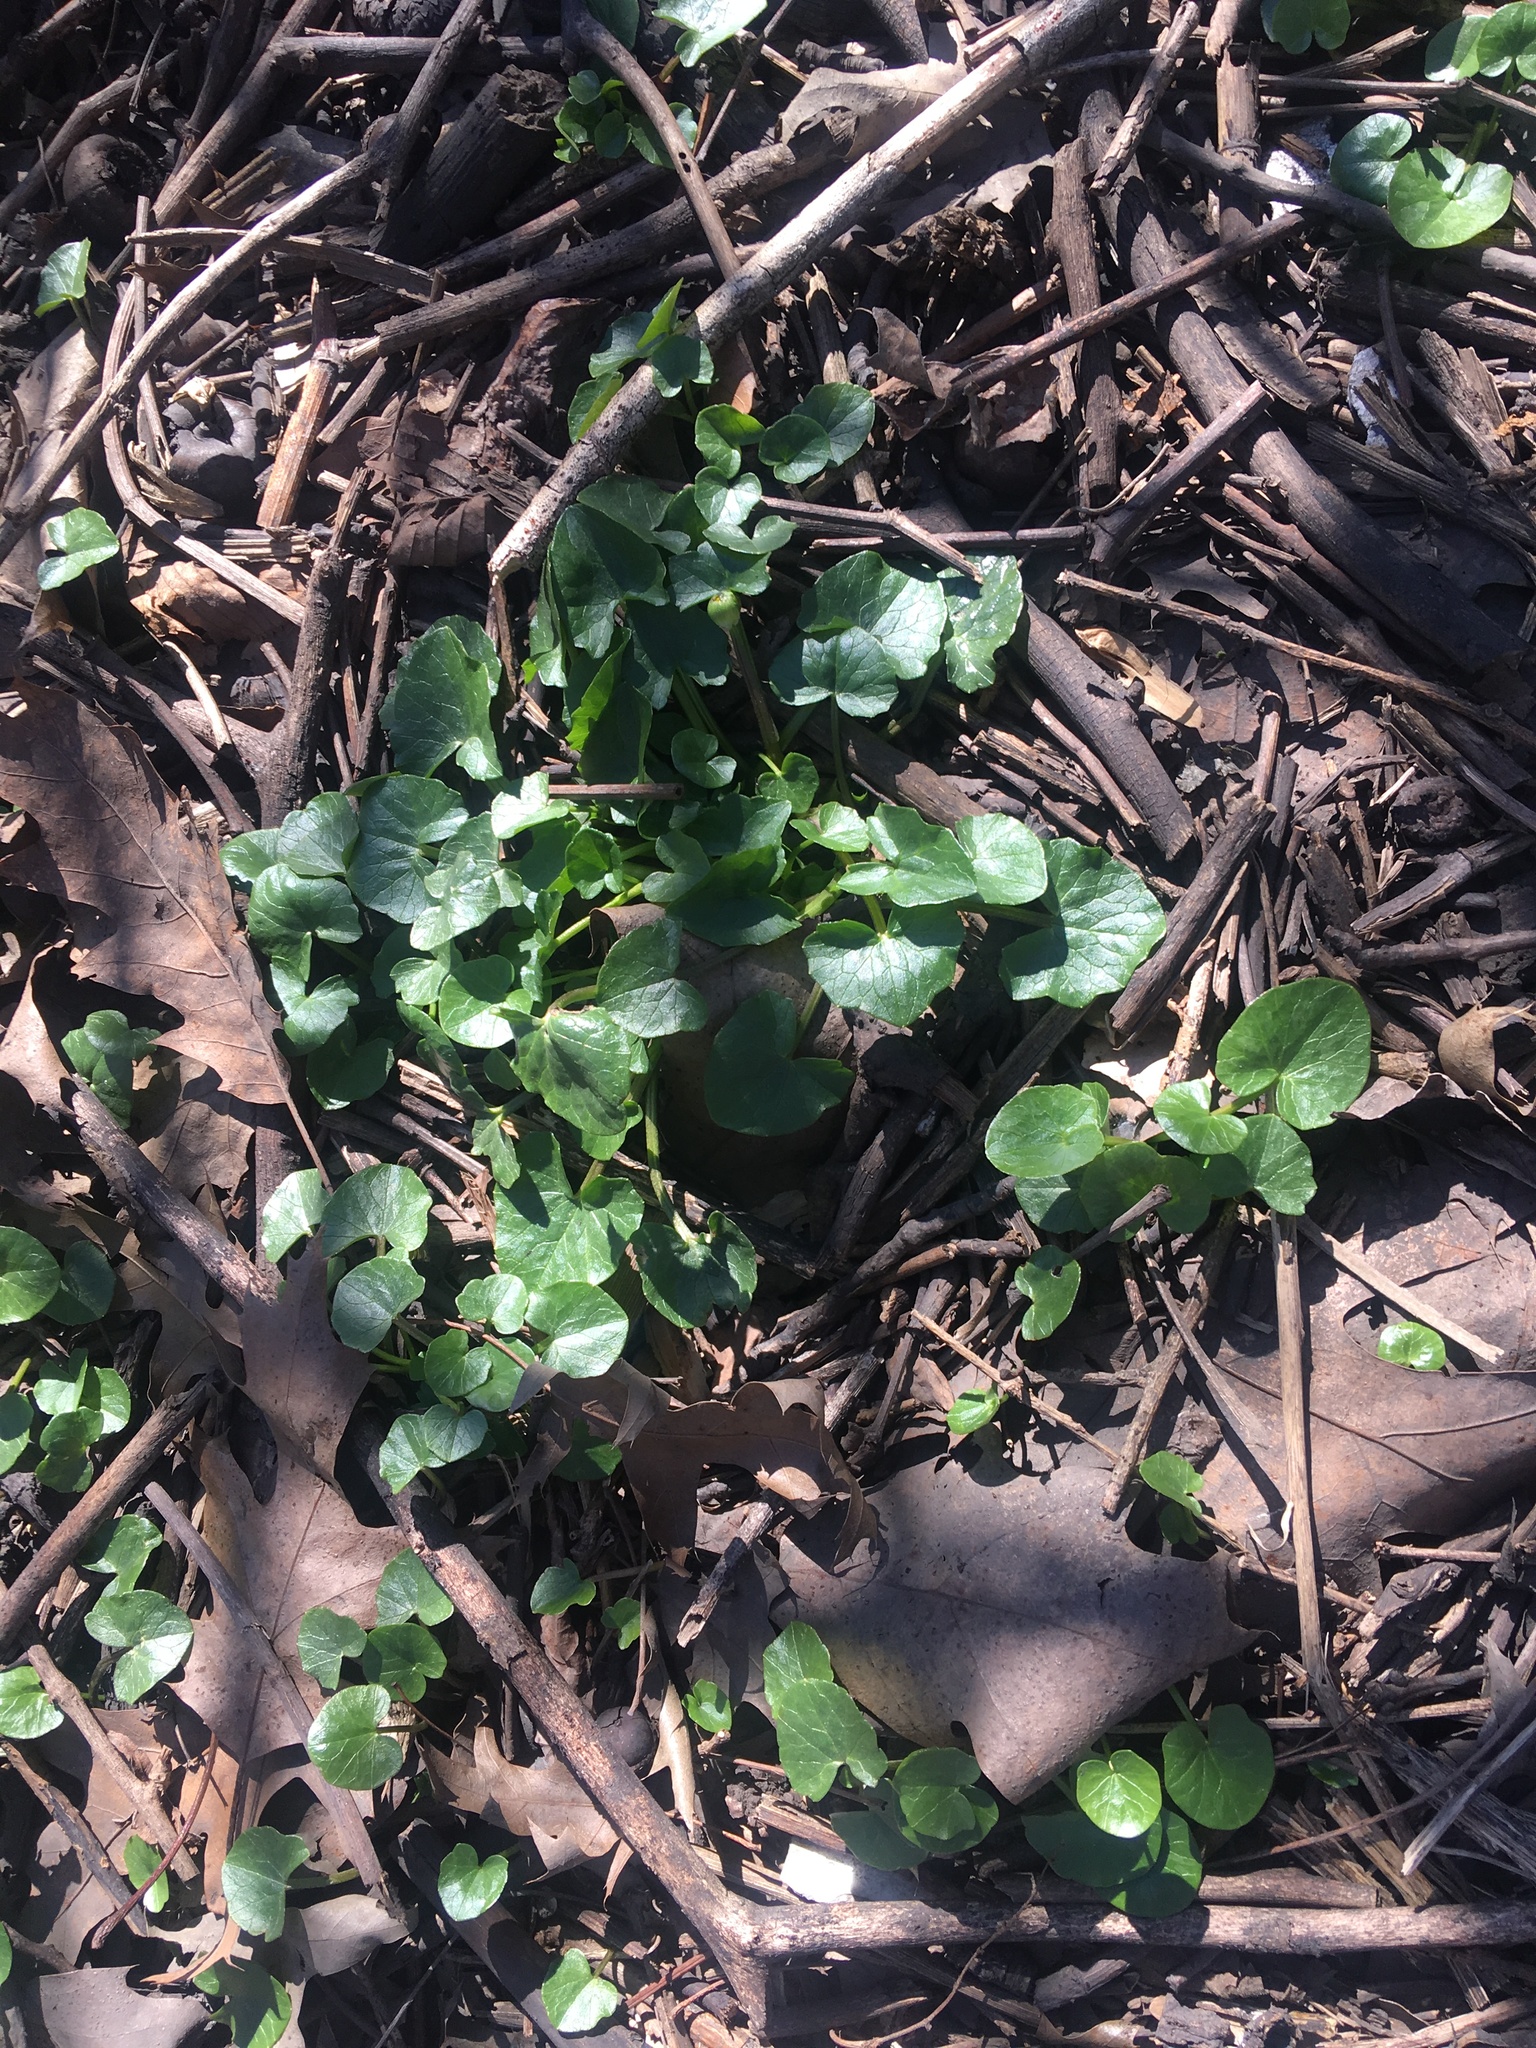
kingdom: Plantae
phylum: Tracheophyta
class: Magnoliopsida
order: Ranunculales
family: Ranunculaceae
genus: Ficaria
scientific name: Ficaria verna
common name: Lesser celandine
